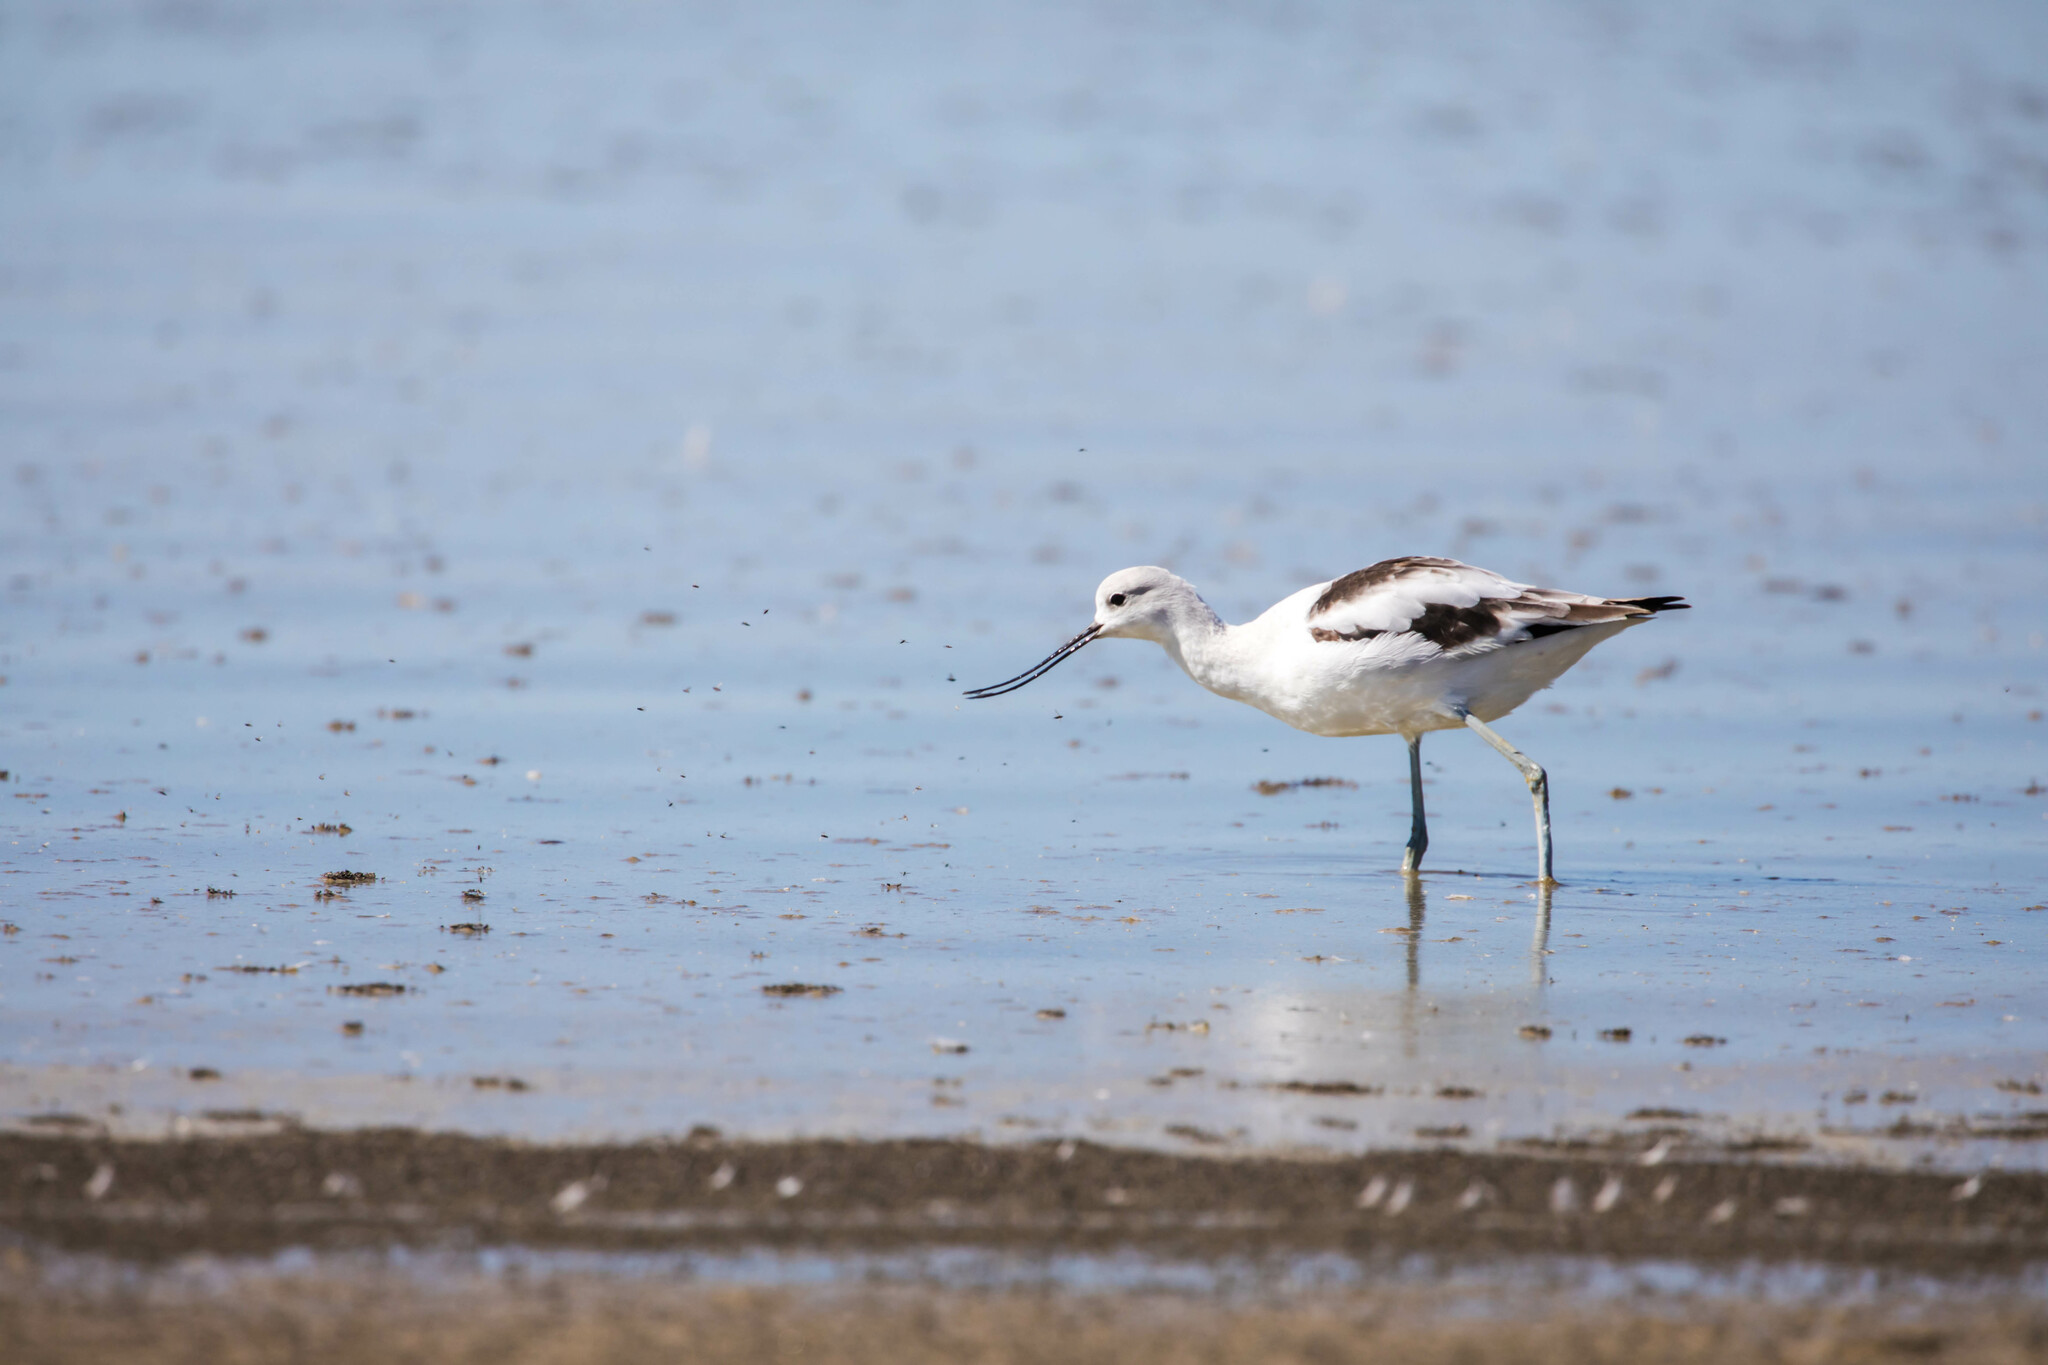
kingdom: Animalia
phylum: Chordata
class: Aves
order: Charadriiformes
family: Recurvirostridae
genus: Recurvirostra
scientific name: Recurvirostra americana
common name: American avocet
